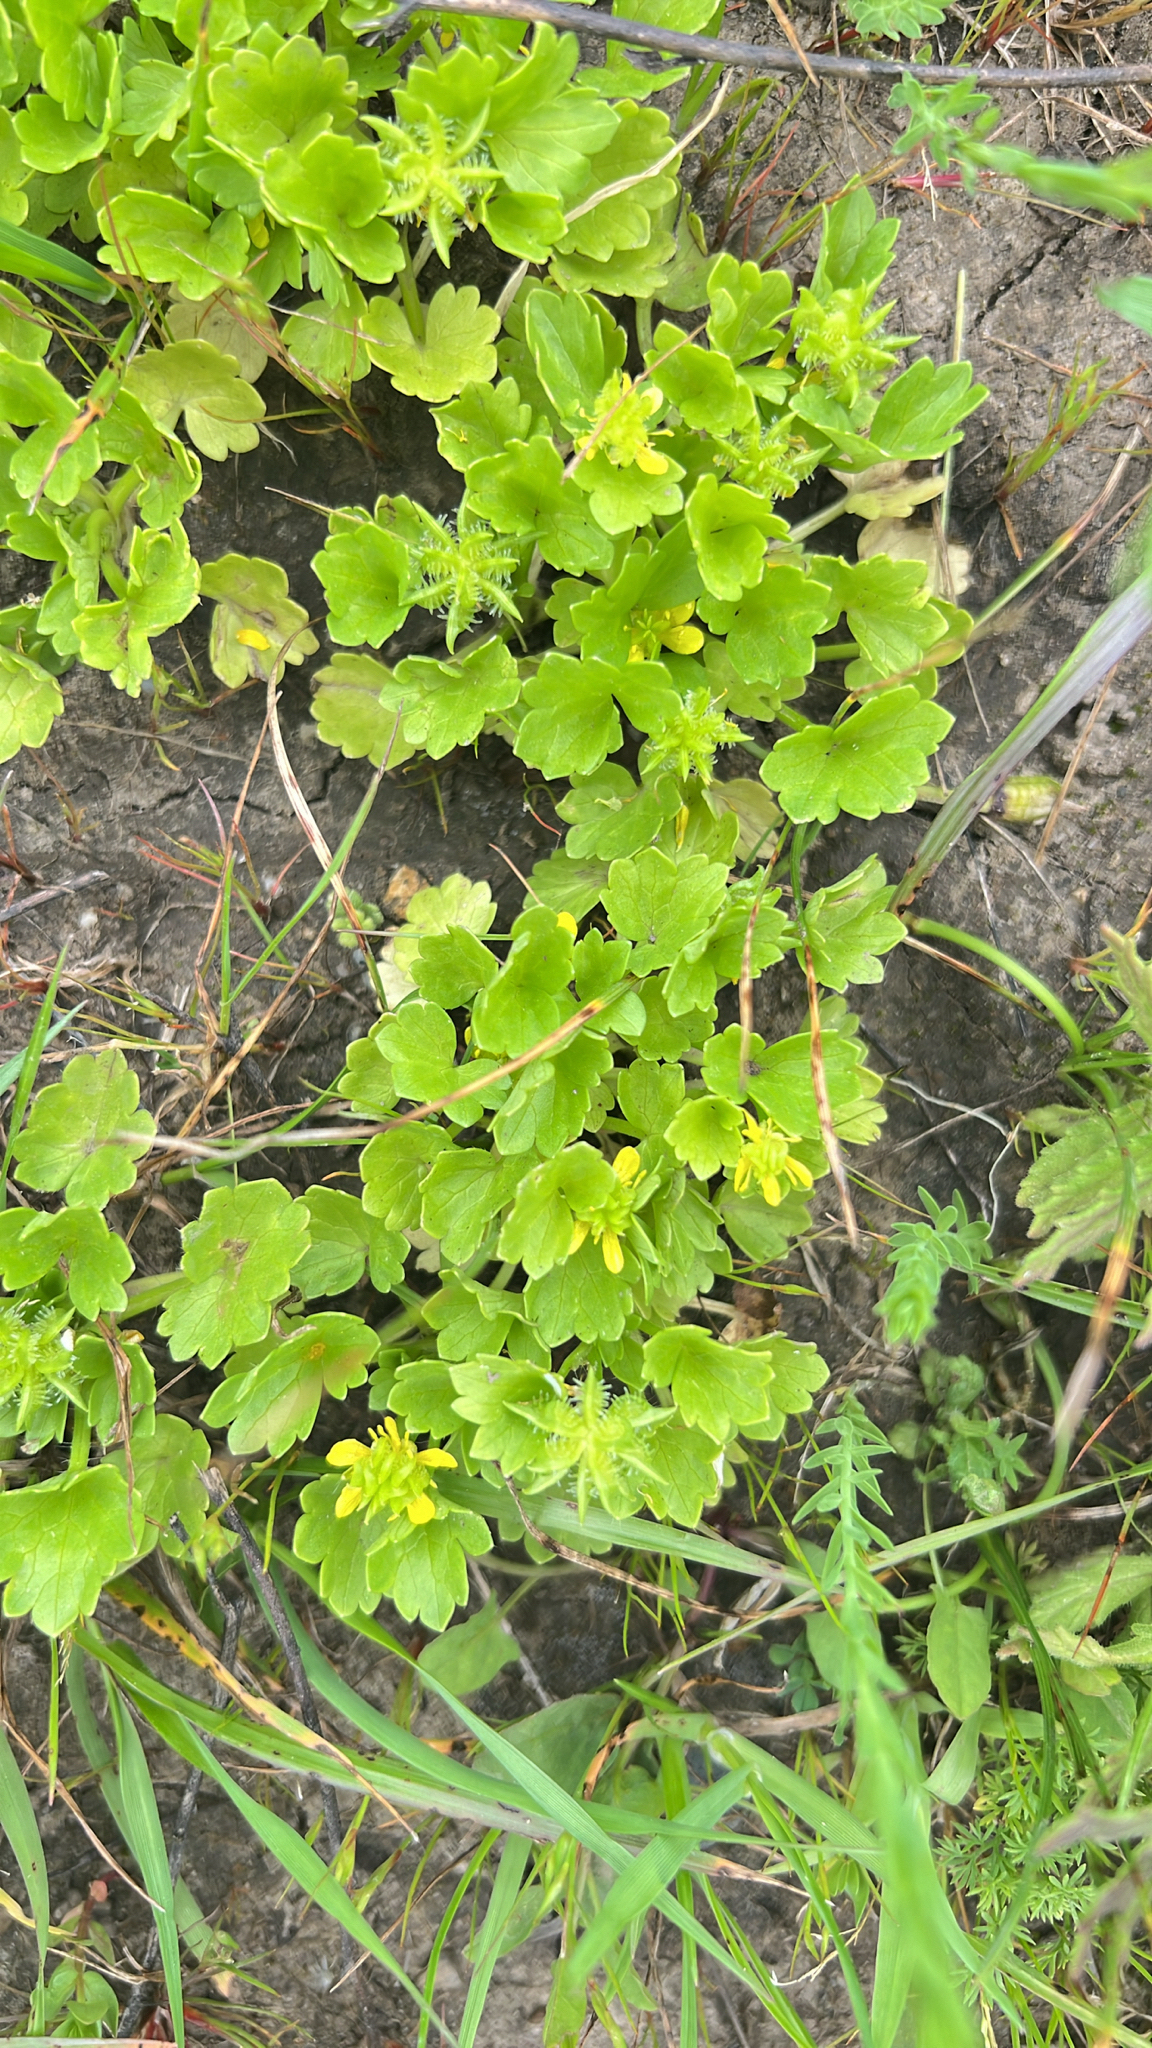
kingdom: Plantae
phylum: Tracheophyta
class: Magnoliopsida
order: Ranunculales
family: Ranunculaceae
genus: Ranunculus
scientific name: Ranunculus muricatus
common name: Rough-fruited buttercup
